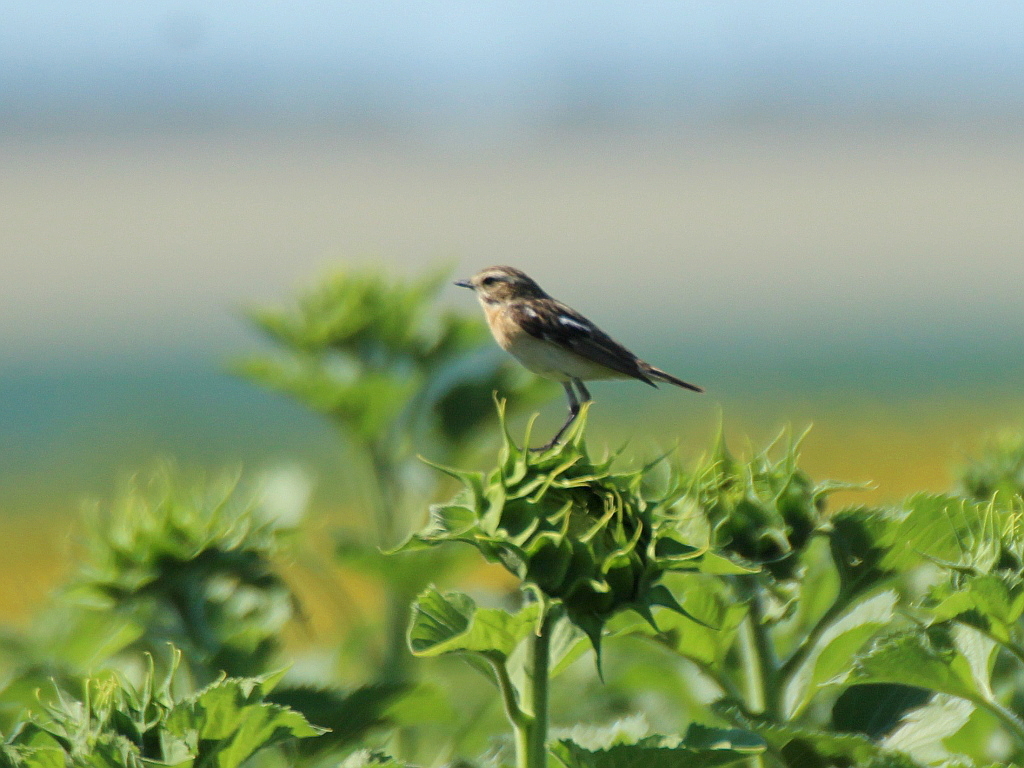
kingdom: Animalia
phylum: Chordata
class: Aves
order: Passeriformes
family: Muscicapidae
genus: Saxicola
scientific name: Saxicola rubetra
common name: Whinchat
